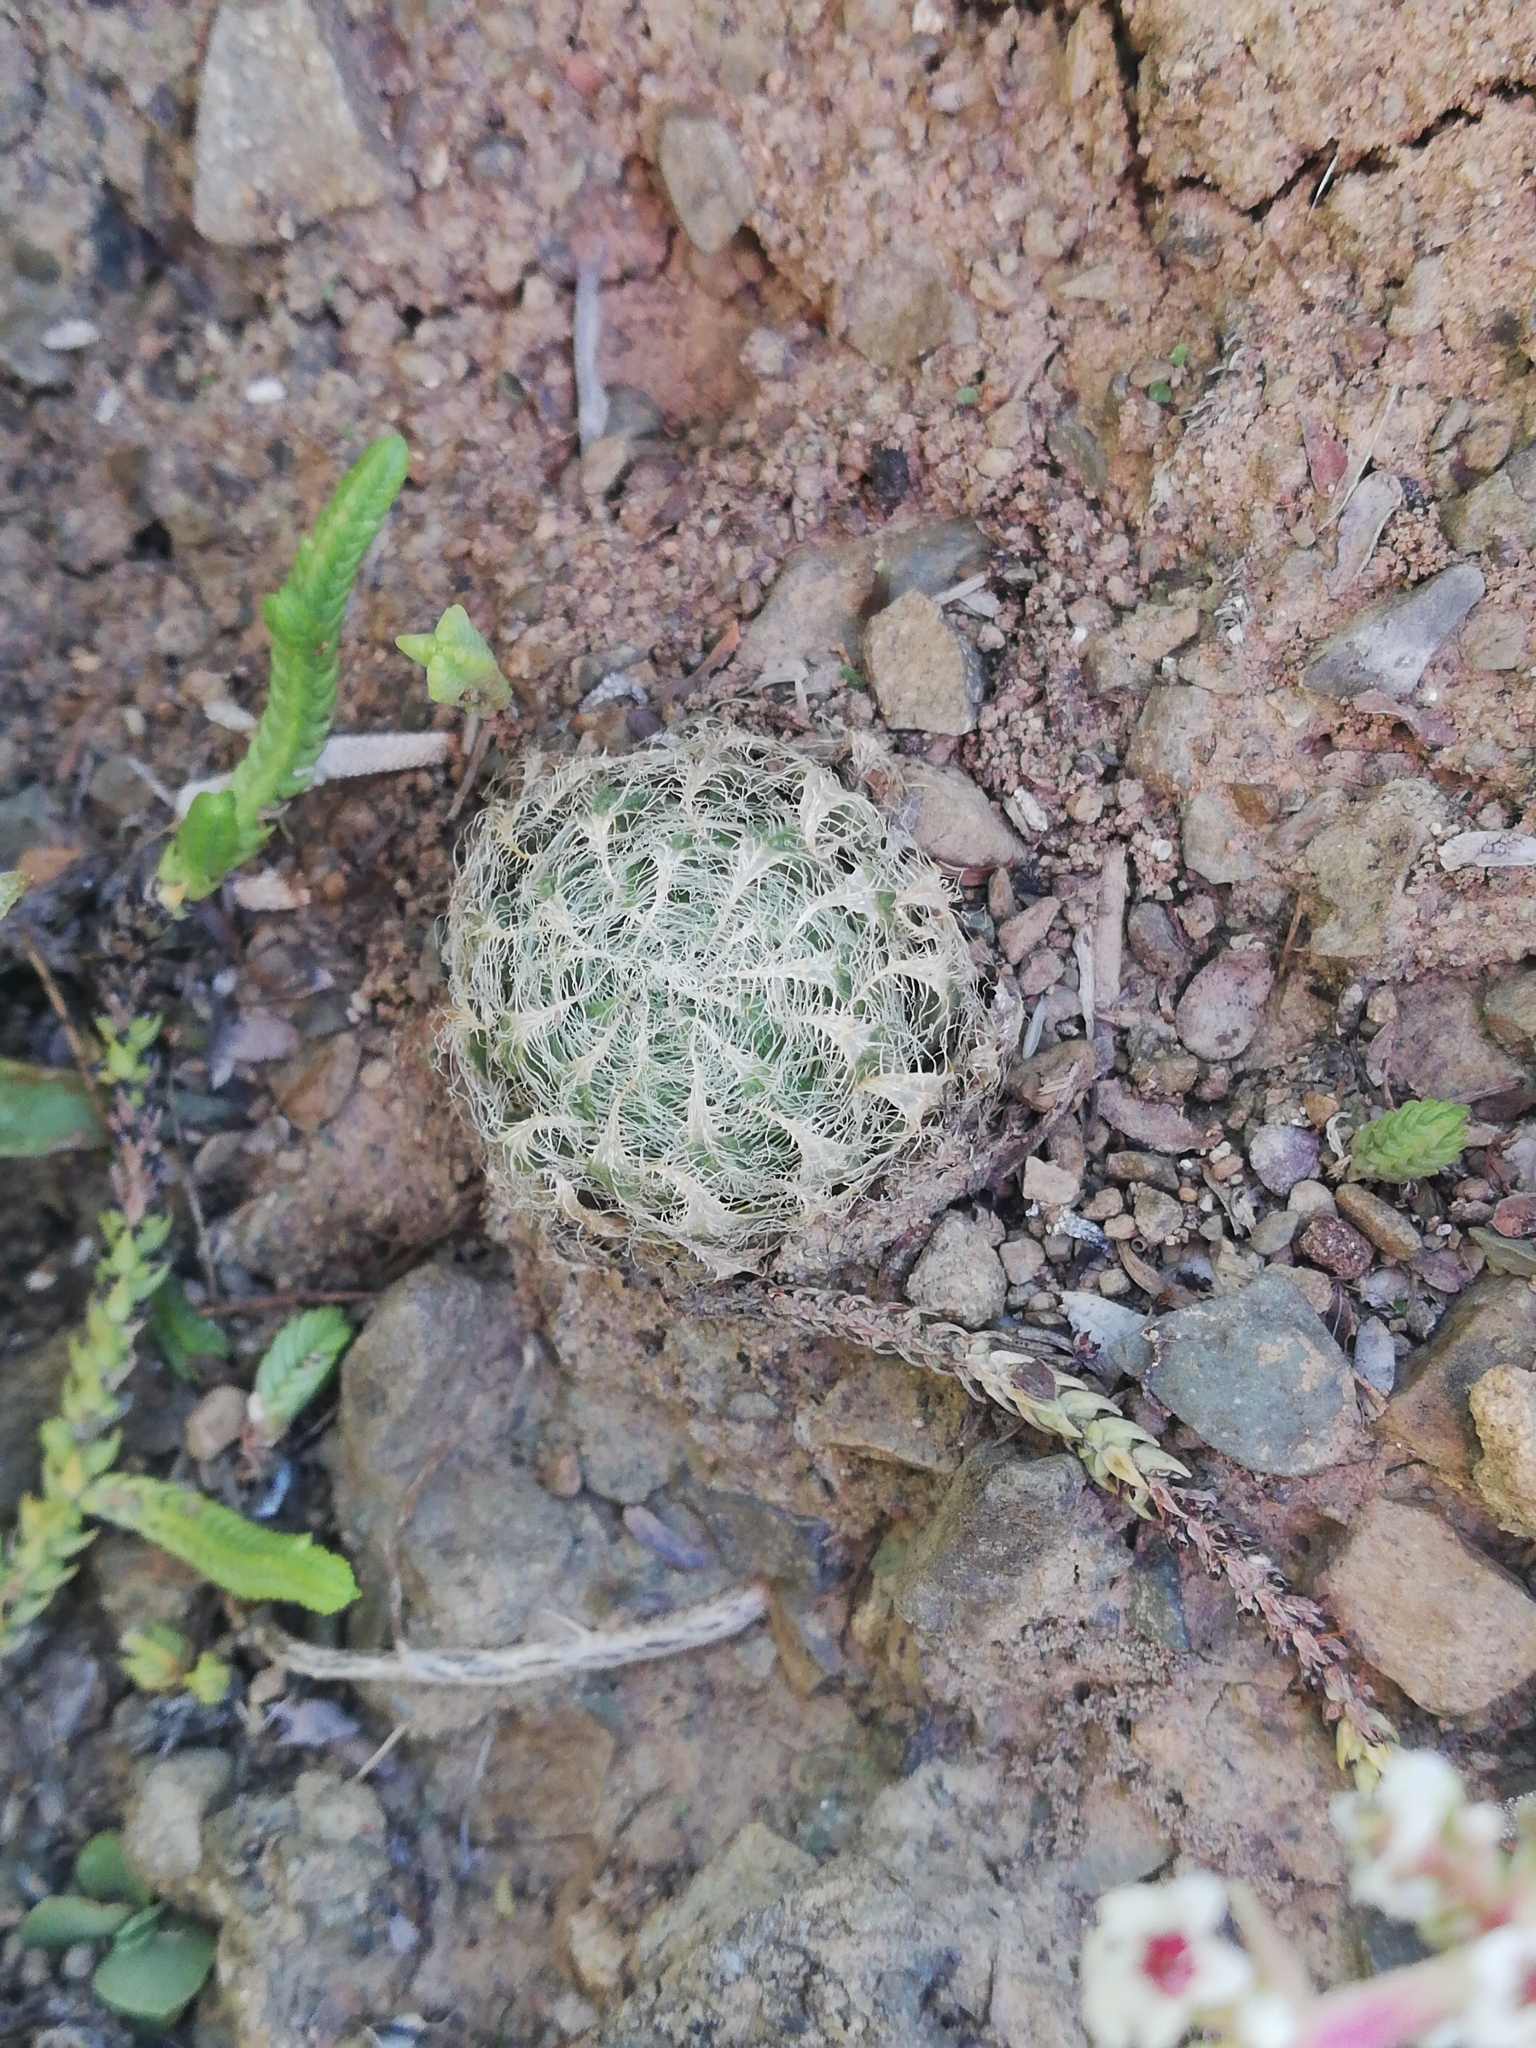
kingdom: Plantae
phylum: Tracheophyta
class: Liliopsida
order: Asparagales
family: Asphodelaceae
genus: Haworthia
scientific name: Haworthia bolusii
